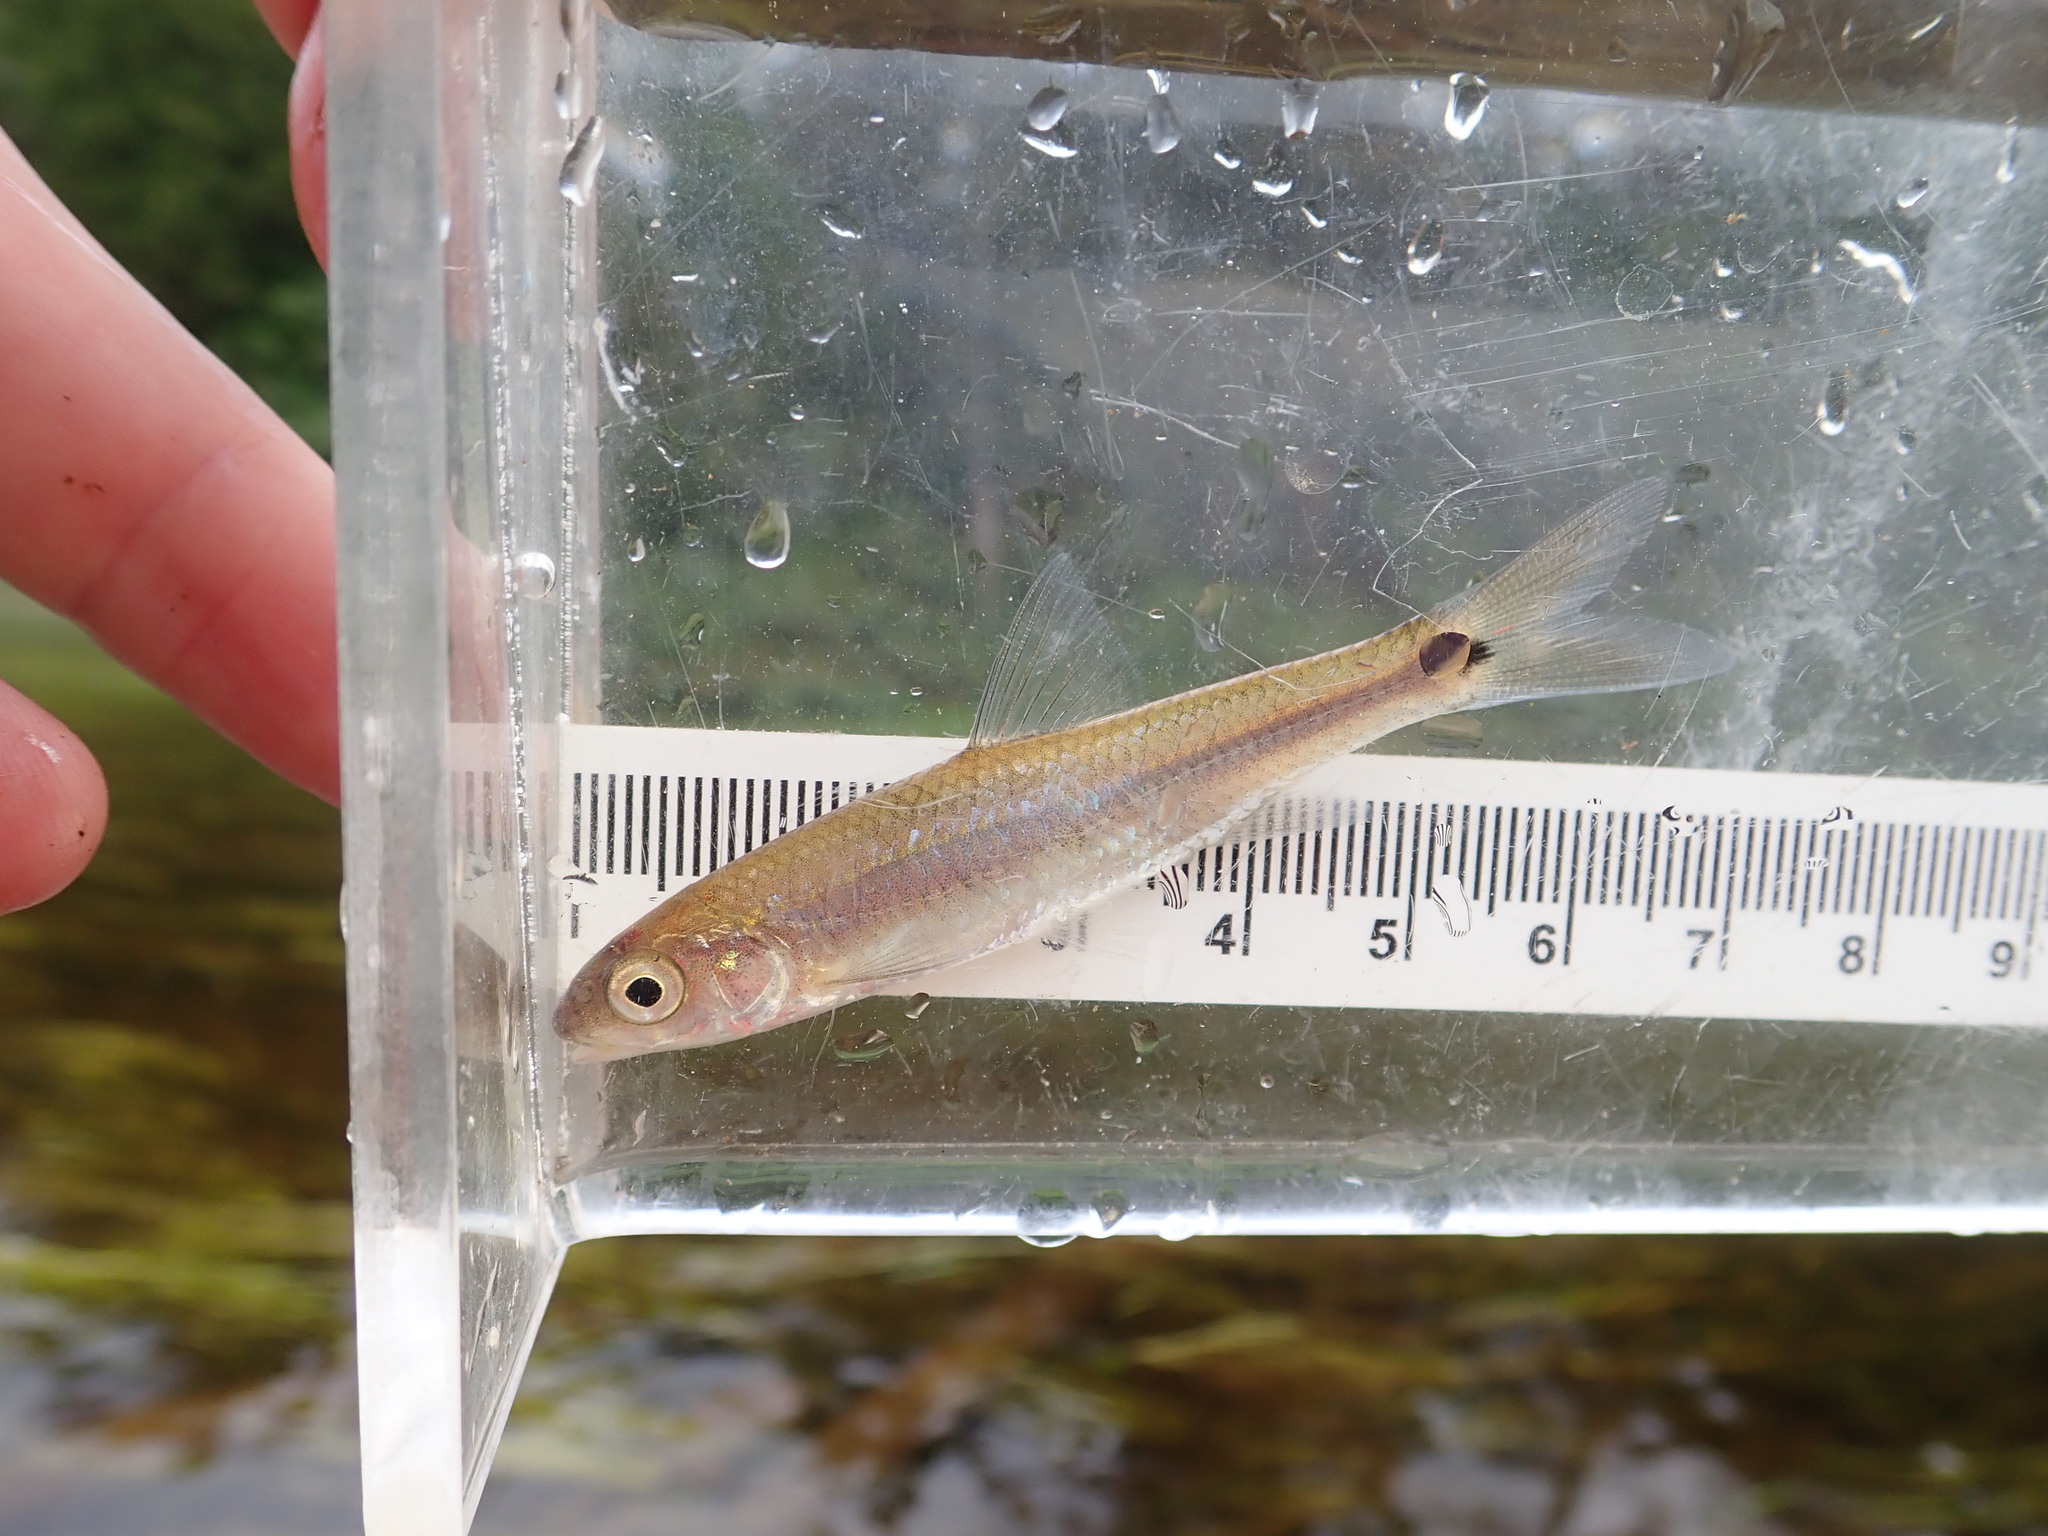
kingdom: Animalia
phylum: Chordata
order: Cypriniformes
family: Cyprinidae
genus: Notropis
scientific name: Notropis
